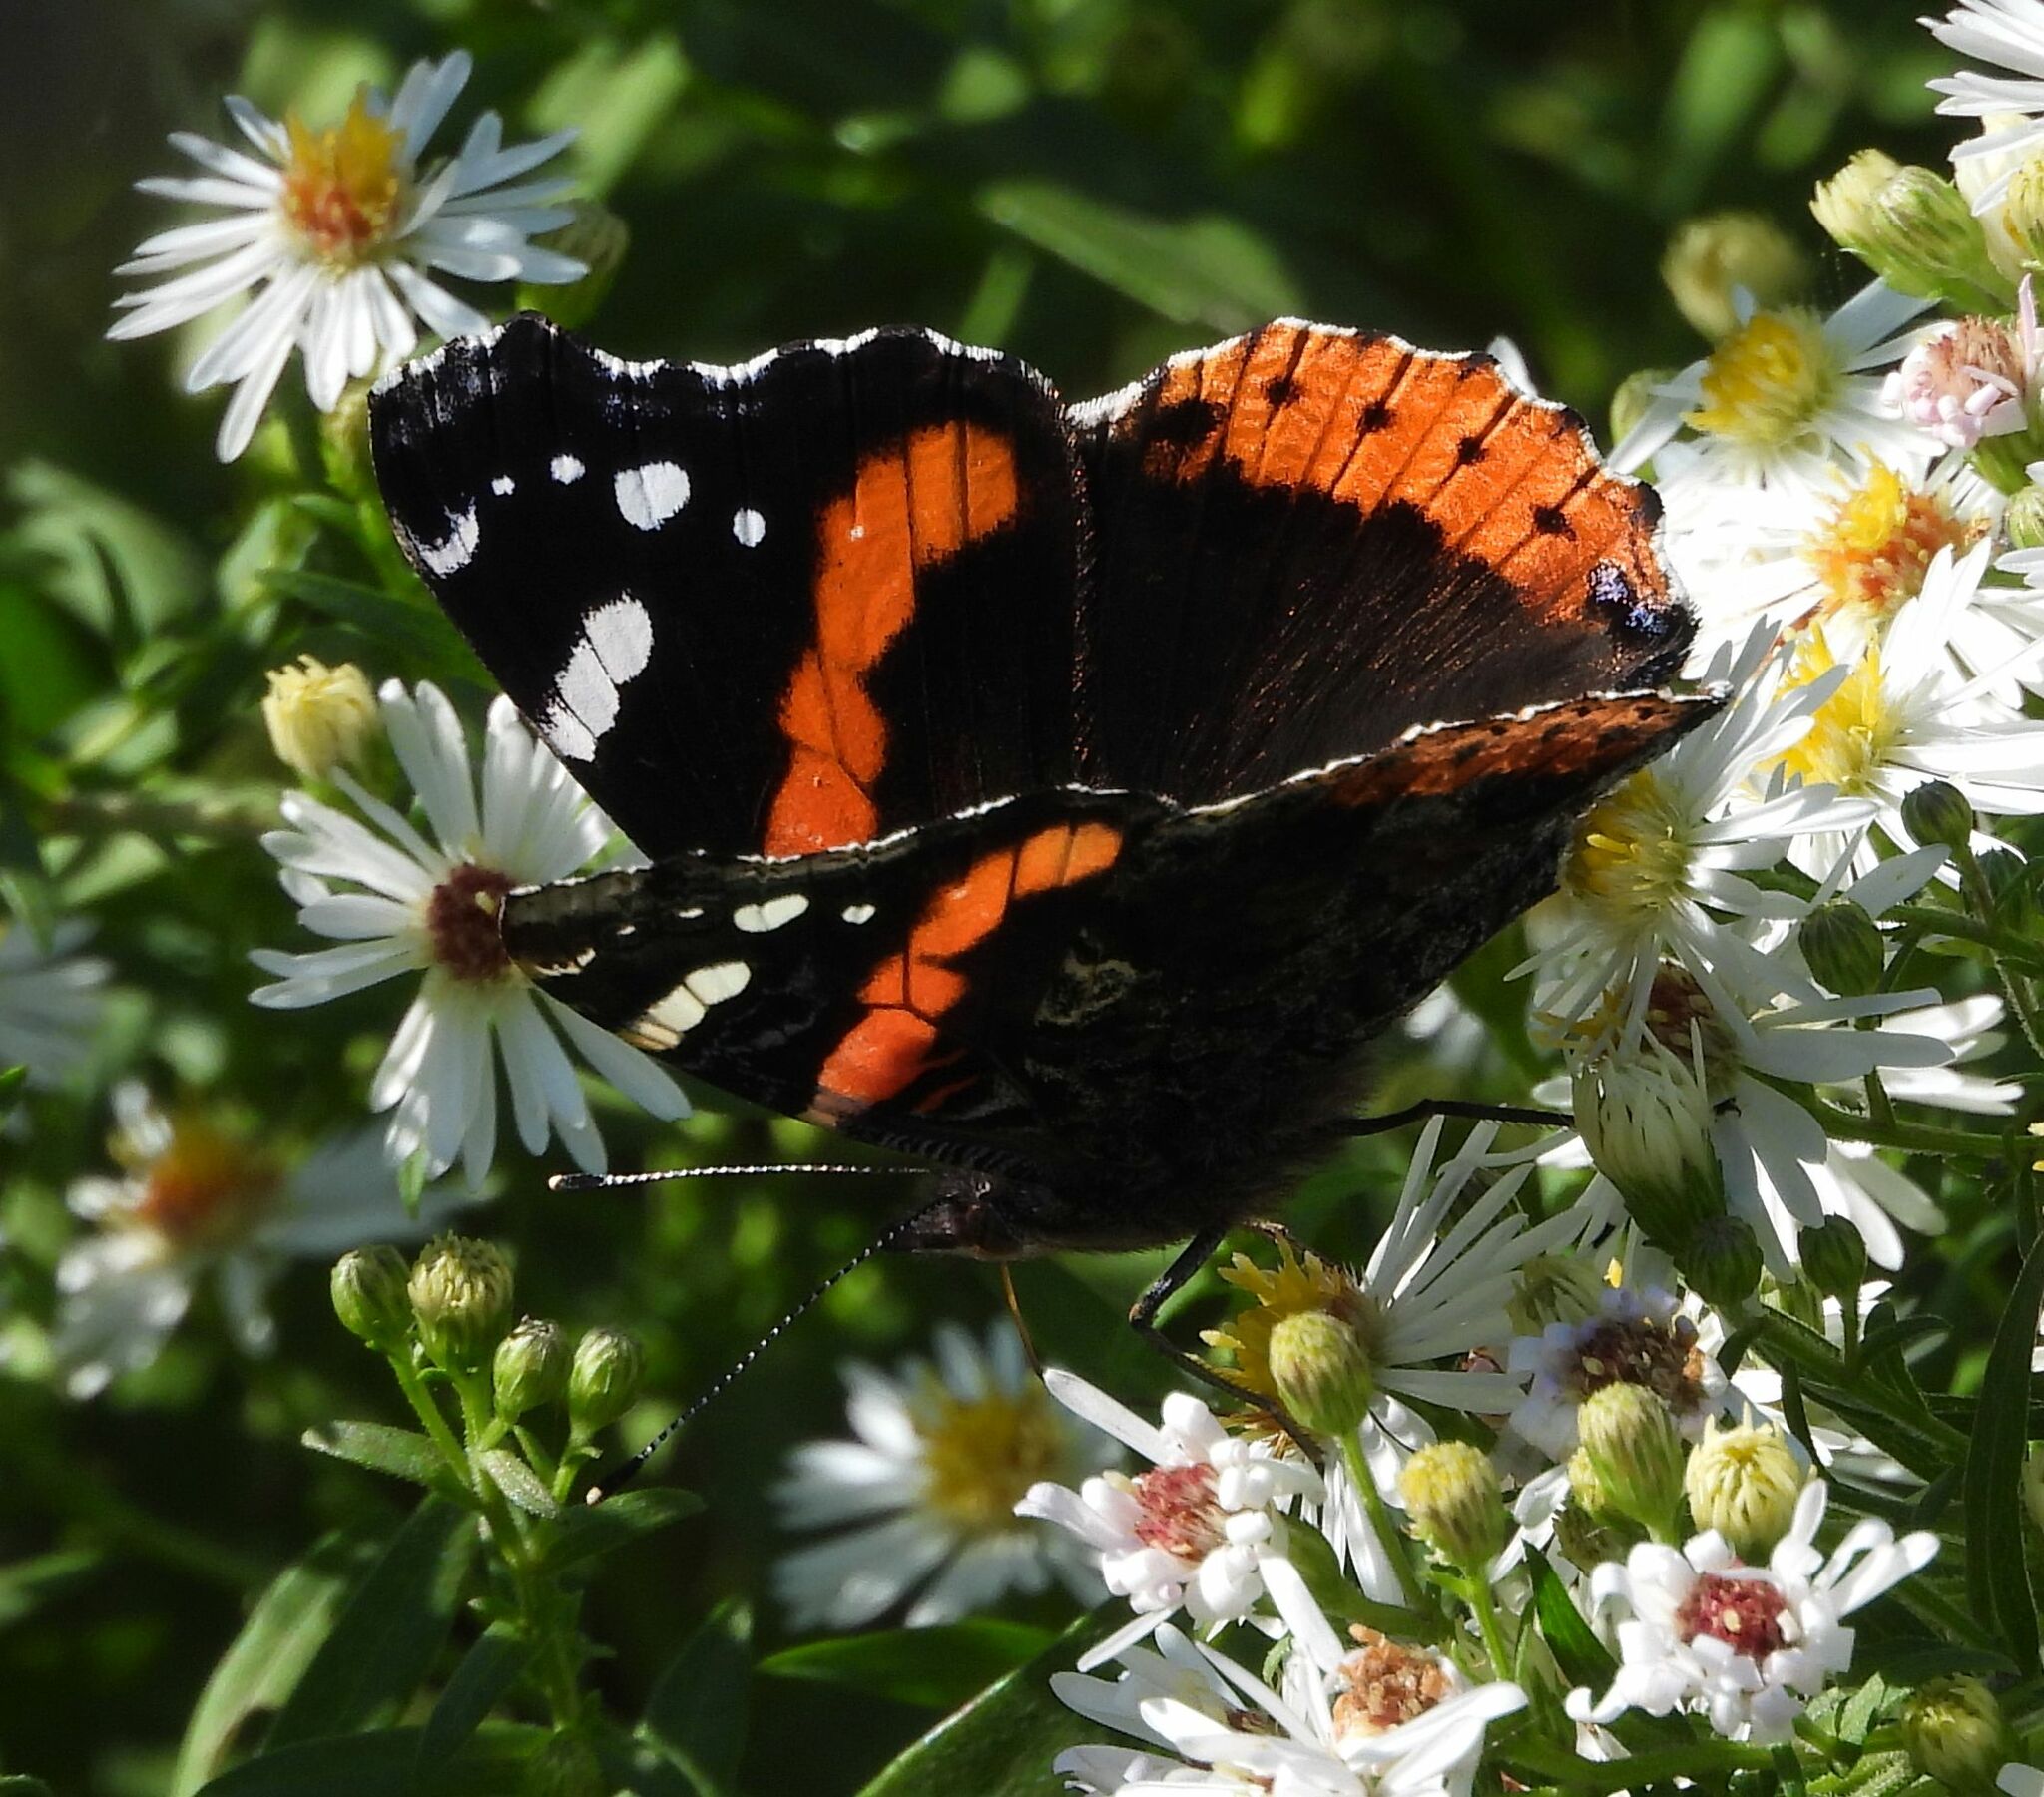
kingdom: Animalia
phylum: Arthropoda
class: Insecta
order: Lepidoptera
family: Nymphalidae
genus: Vanessa
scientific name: Vanessa atalanta
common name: Red admiral
